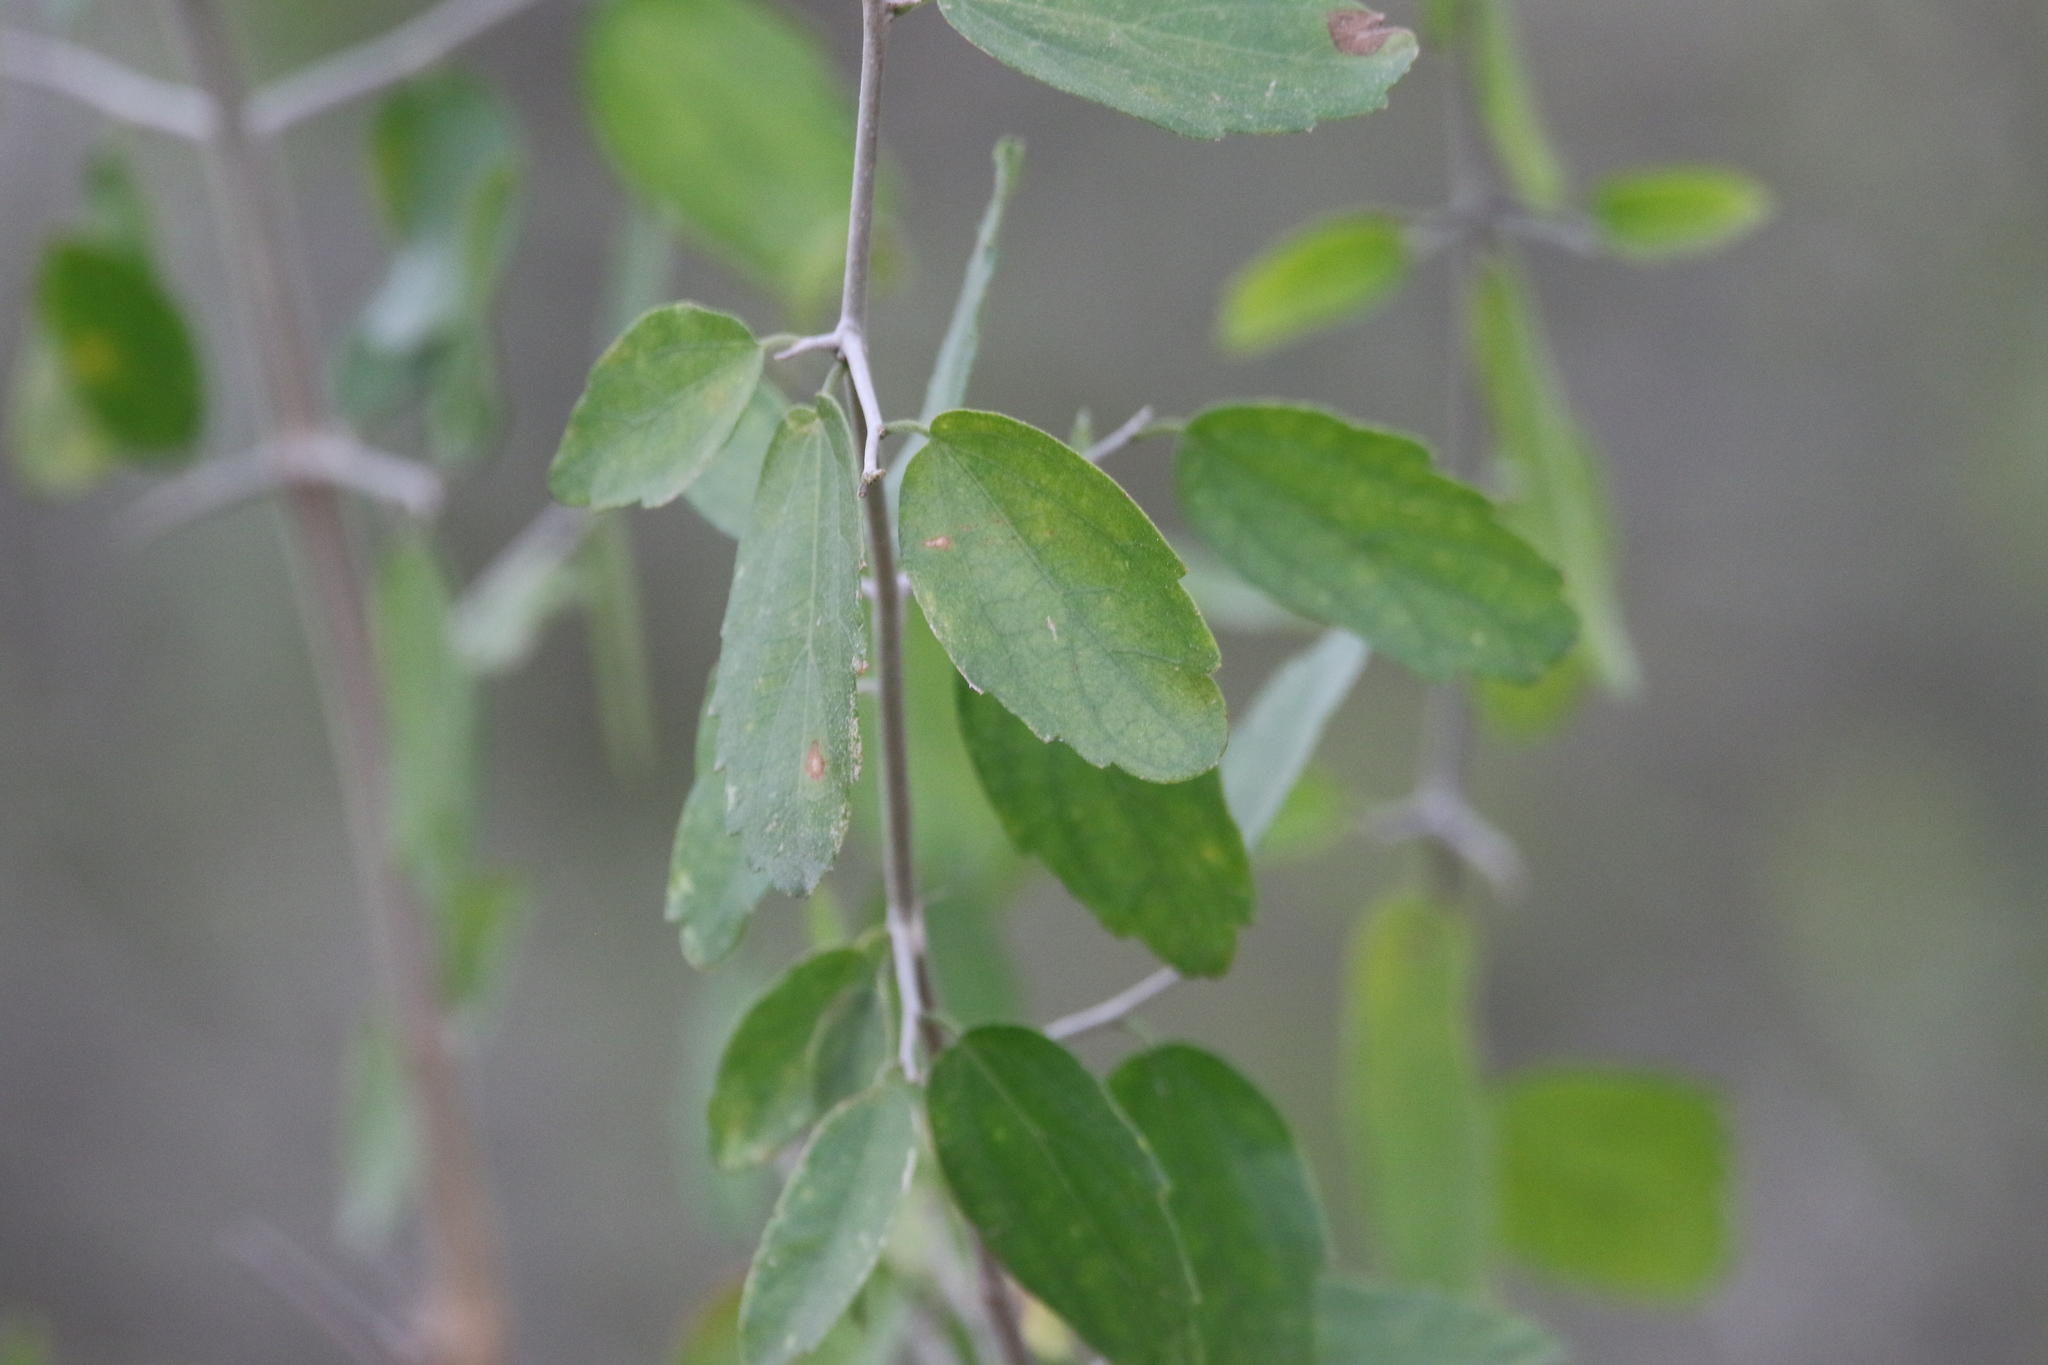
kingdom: Plantae
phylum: Tracheophyta
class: Magnoliopsida
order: Rosales
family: Cannabaceae
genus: Celtis
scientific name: Celtis pallida
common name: Desert hackberry
